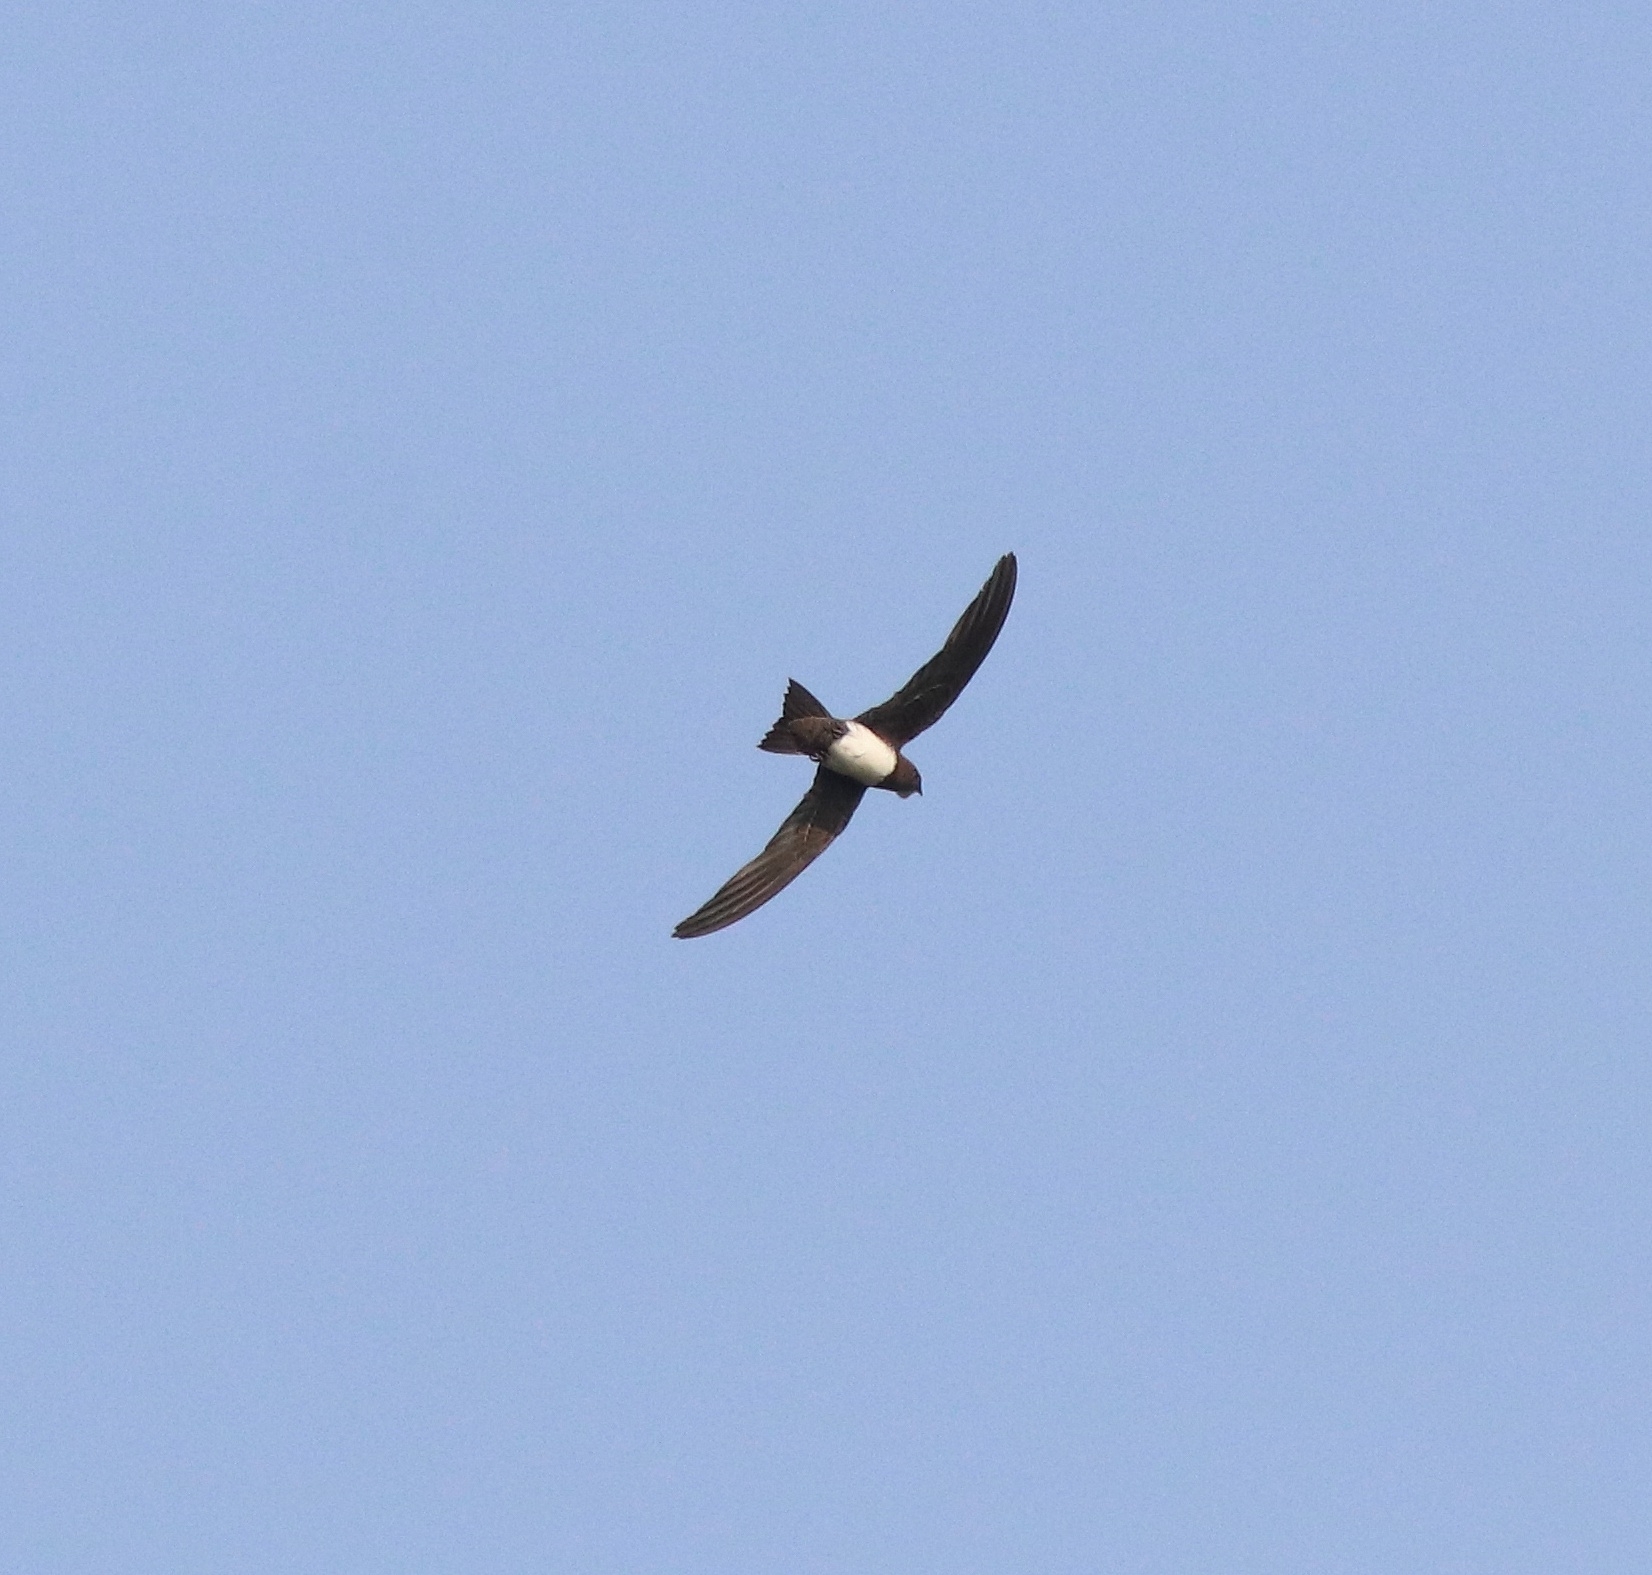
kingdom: Animalia
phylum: Chordata
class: Aves
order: Apodiformes
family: Apodidae
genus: Tachymarptis
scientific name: Tachymarptis melba
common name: Alpine swift
